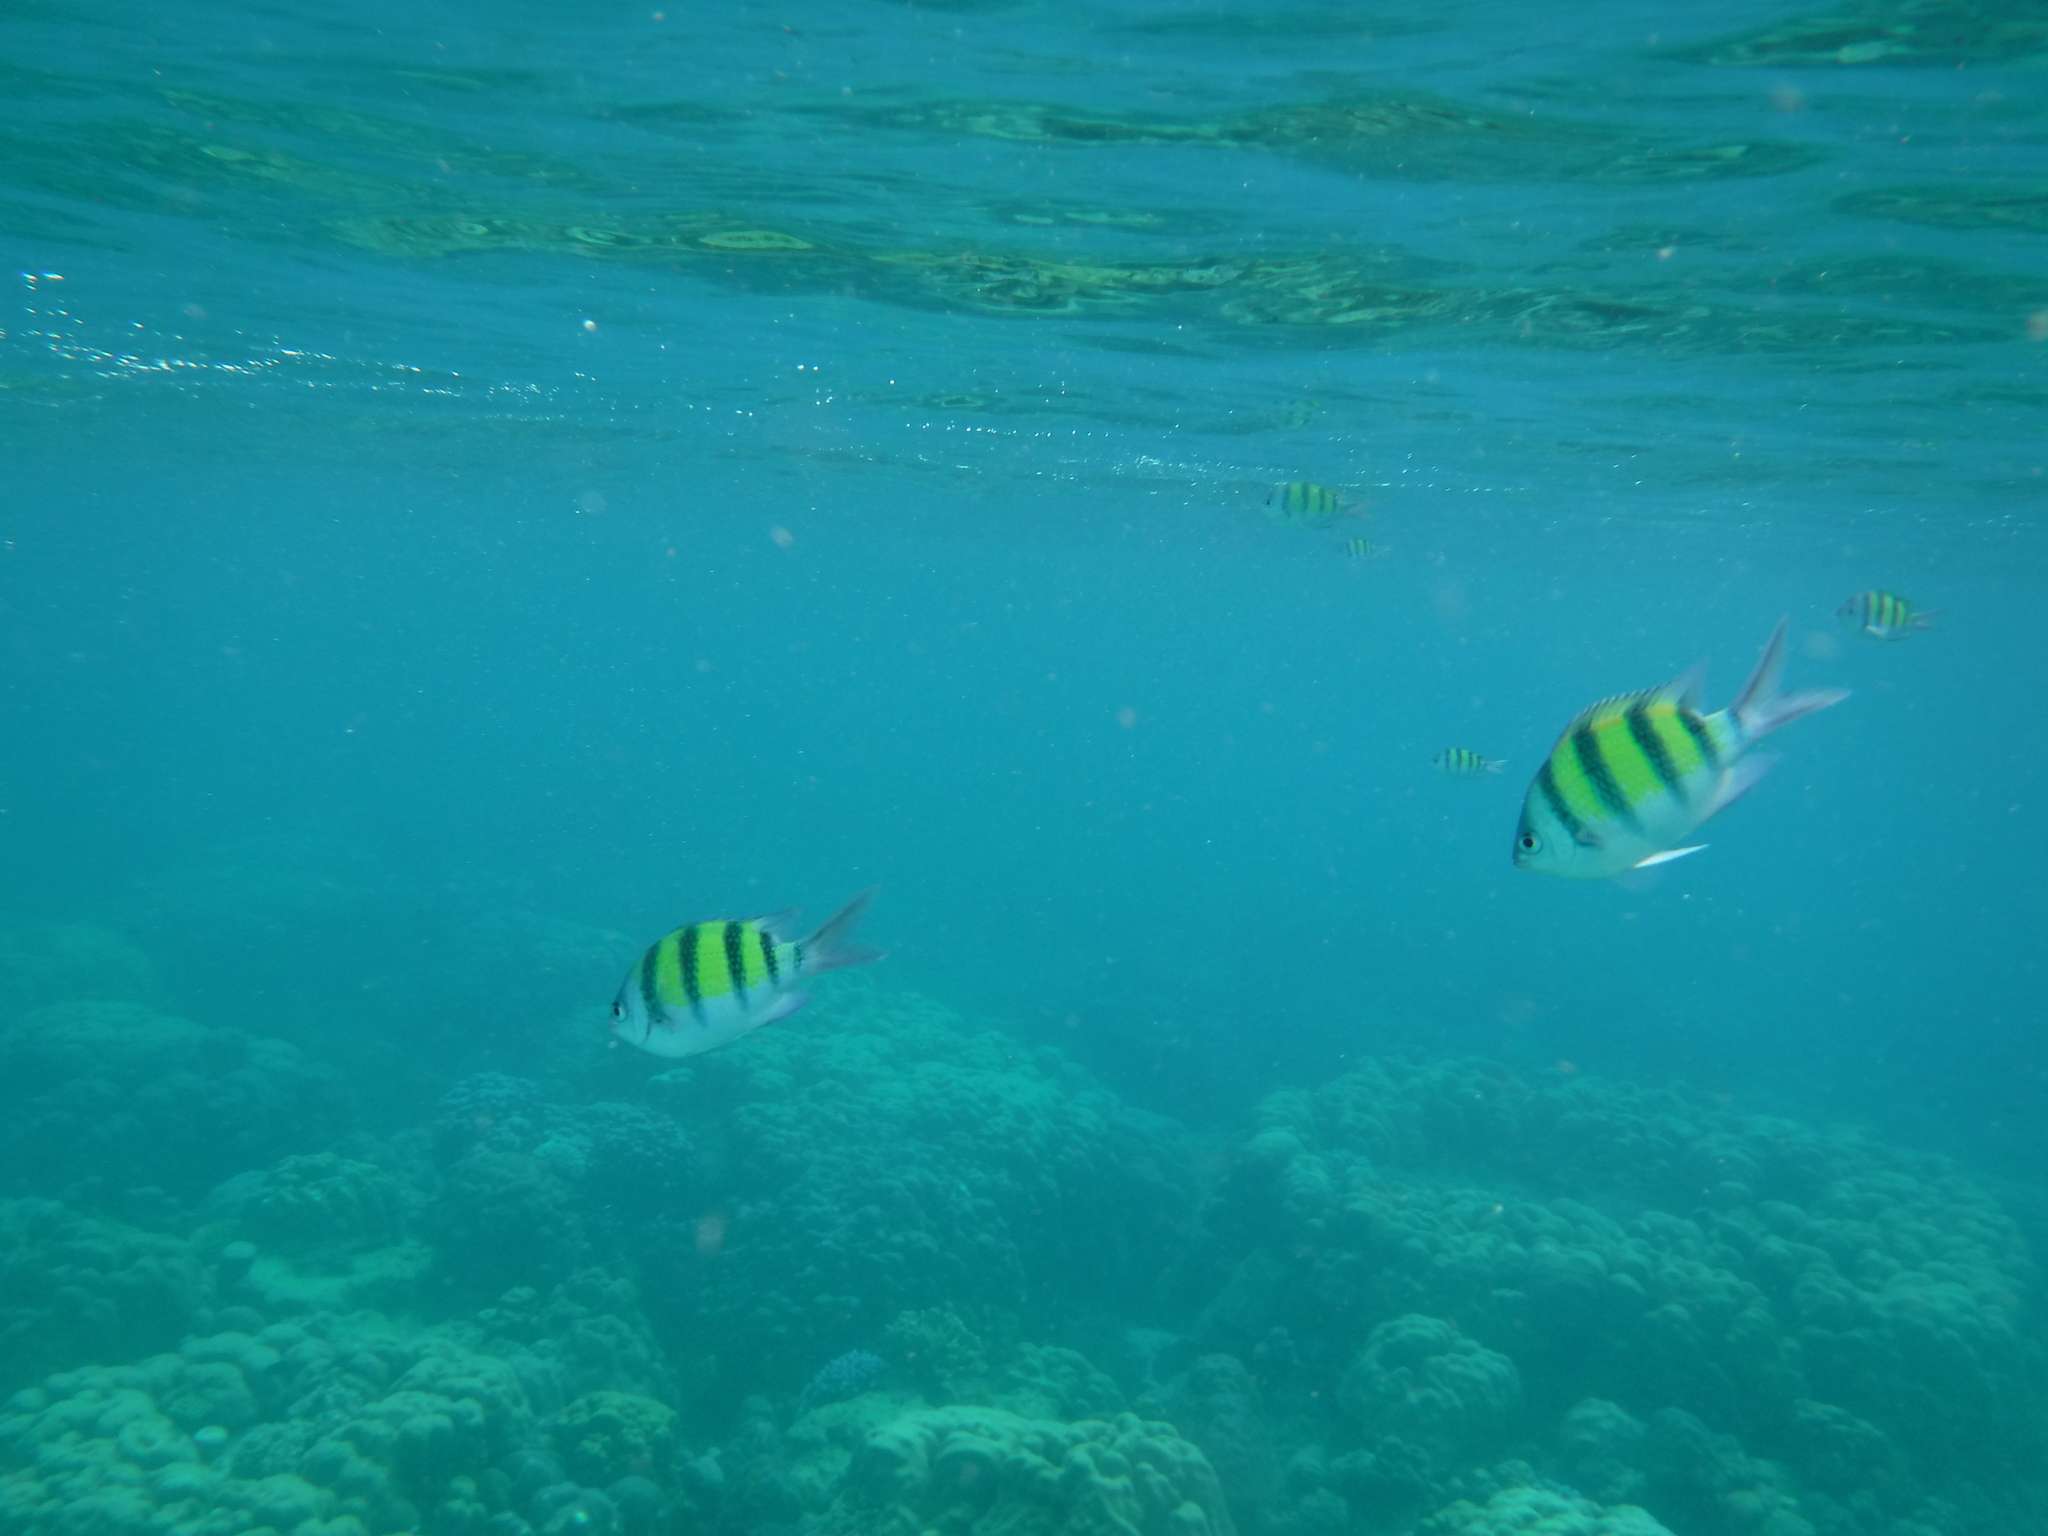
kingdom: Animalia
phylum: Chordata
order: Perciformes
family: Pomacentridae
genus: Abudefduf
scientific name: Abudefduf vaigiensis
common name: Indo-pacific sergeant
